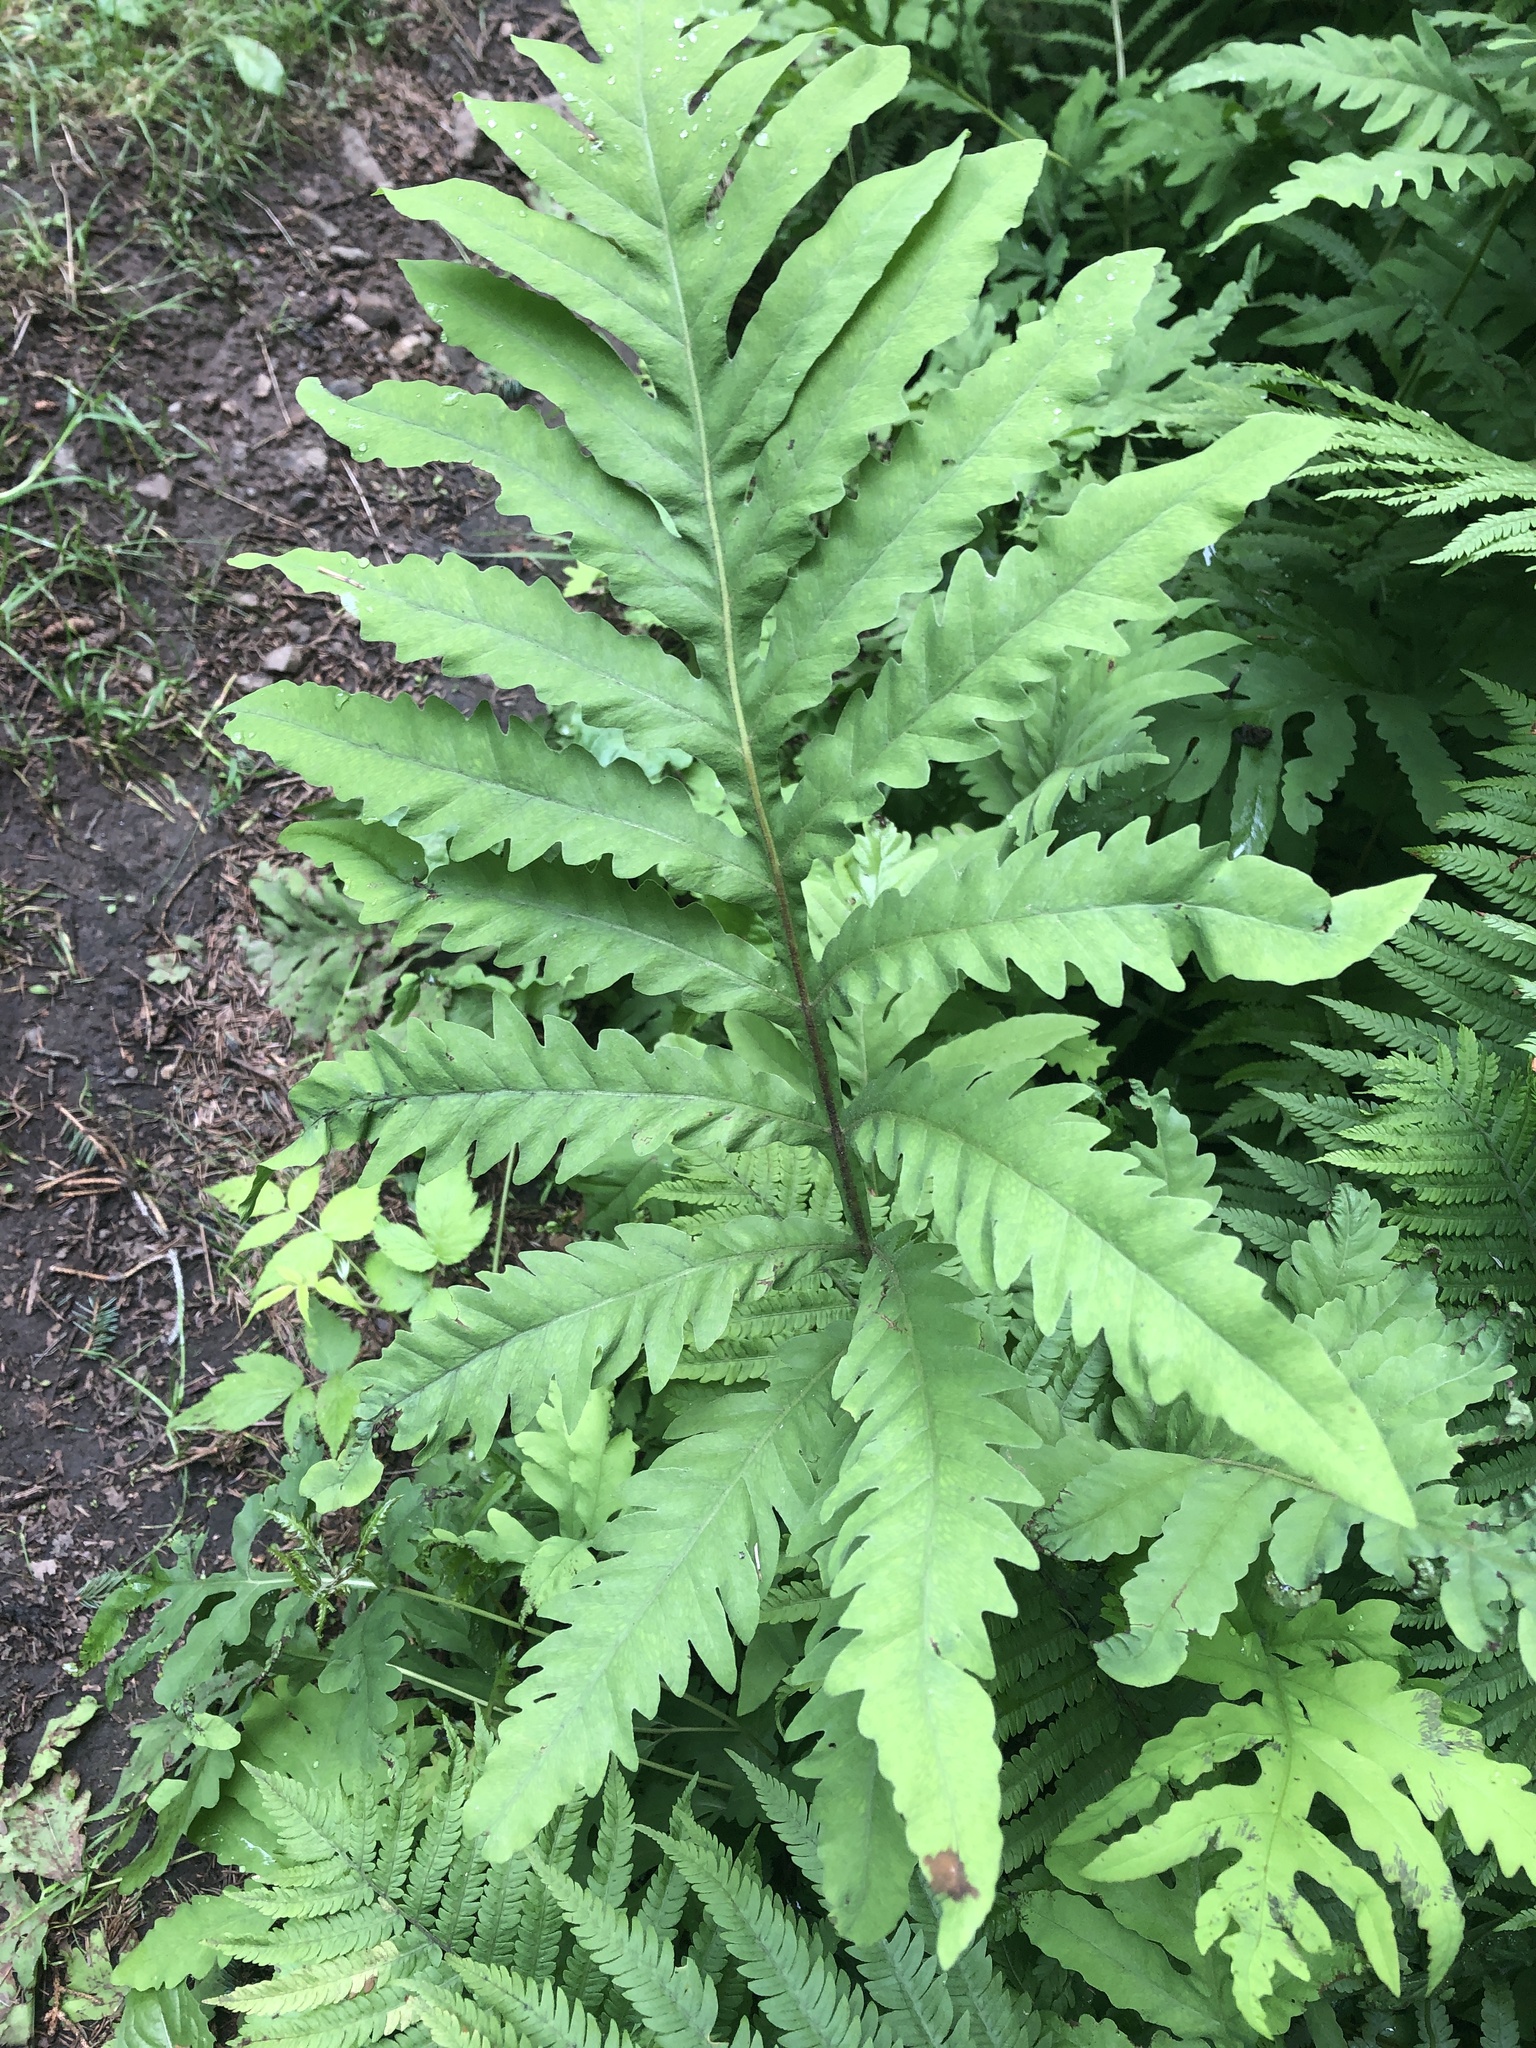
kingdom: Plantae
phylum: Tracheophyta
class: Polypodiopsida
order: Polypodiales
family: Onocleaceae
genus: Onoclea
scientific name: Onoclea sensibilis
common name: Sensitive fern
